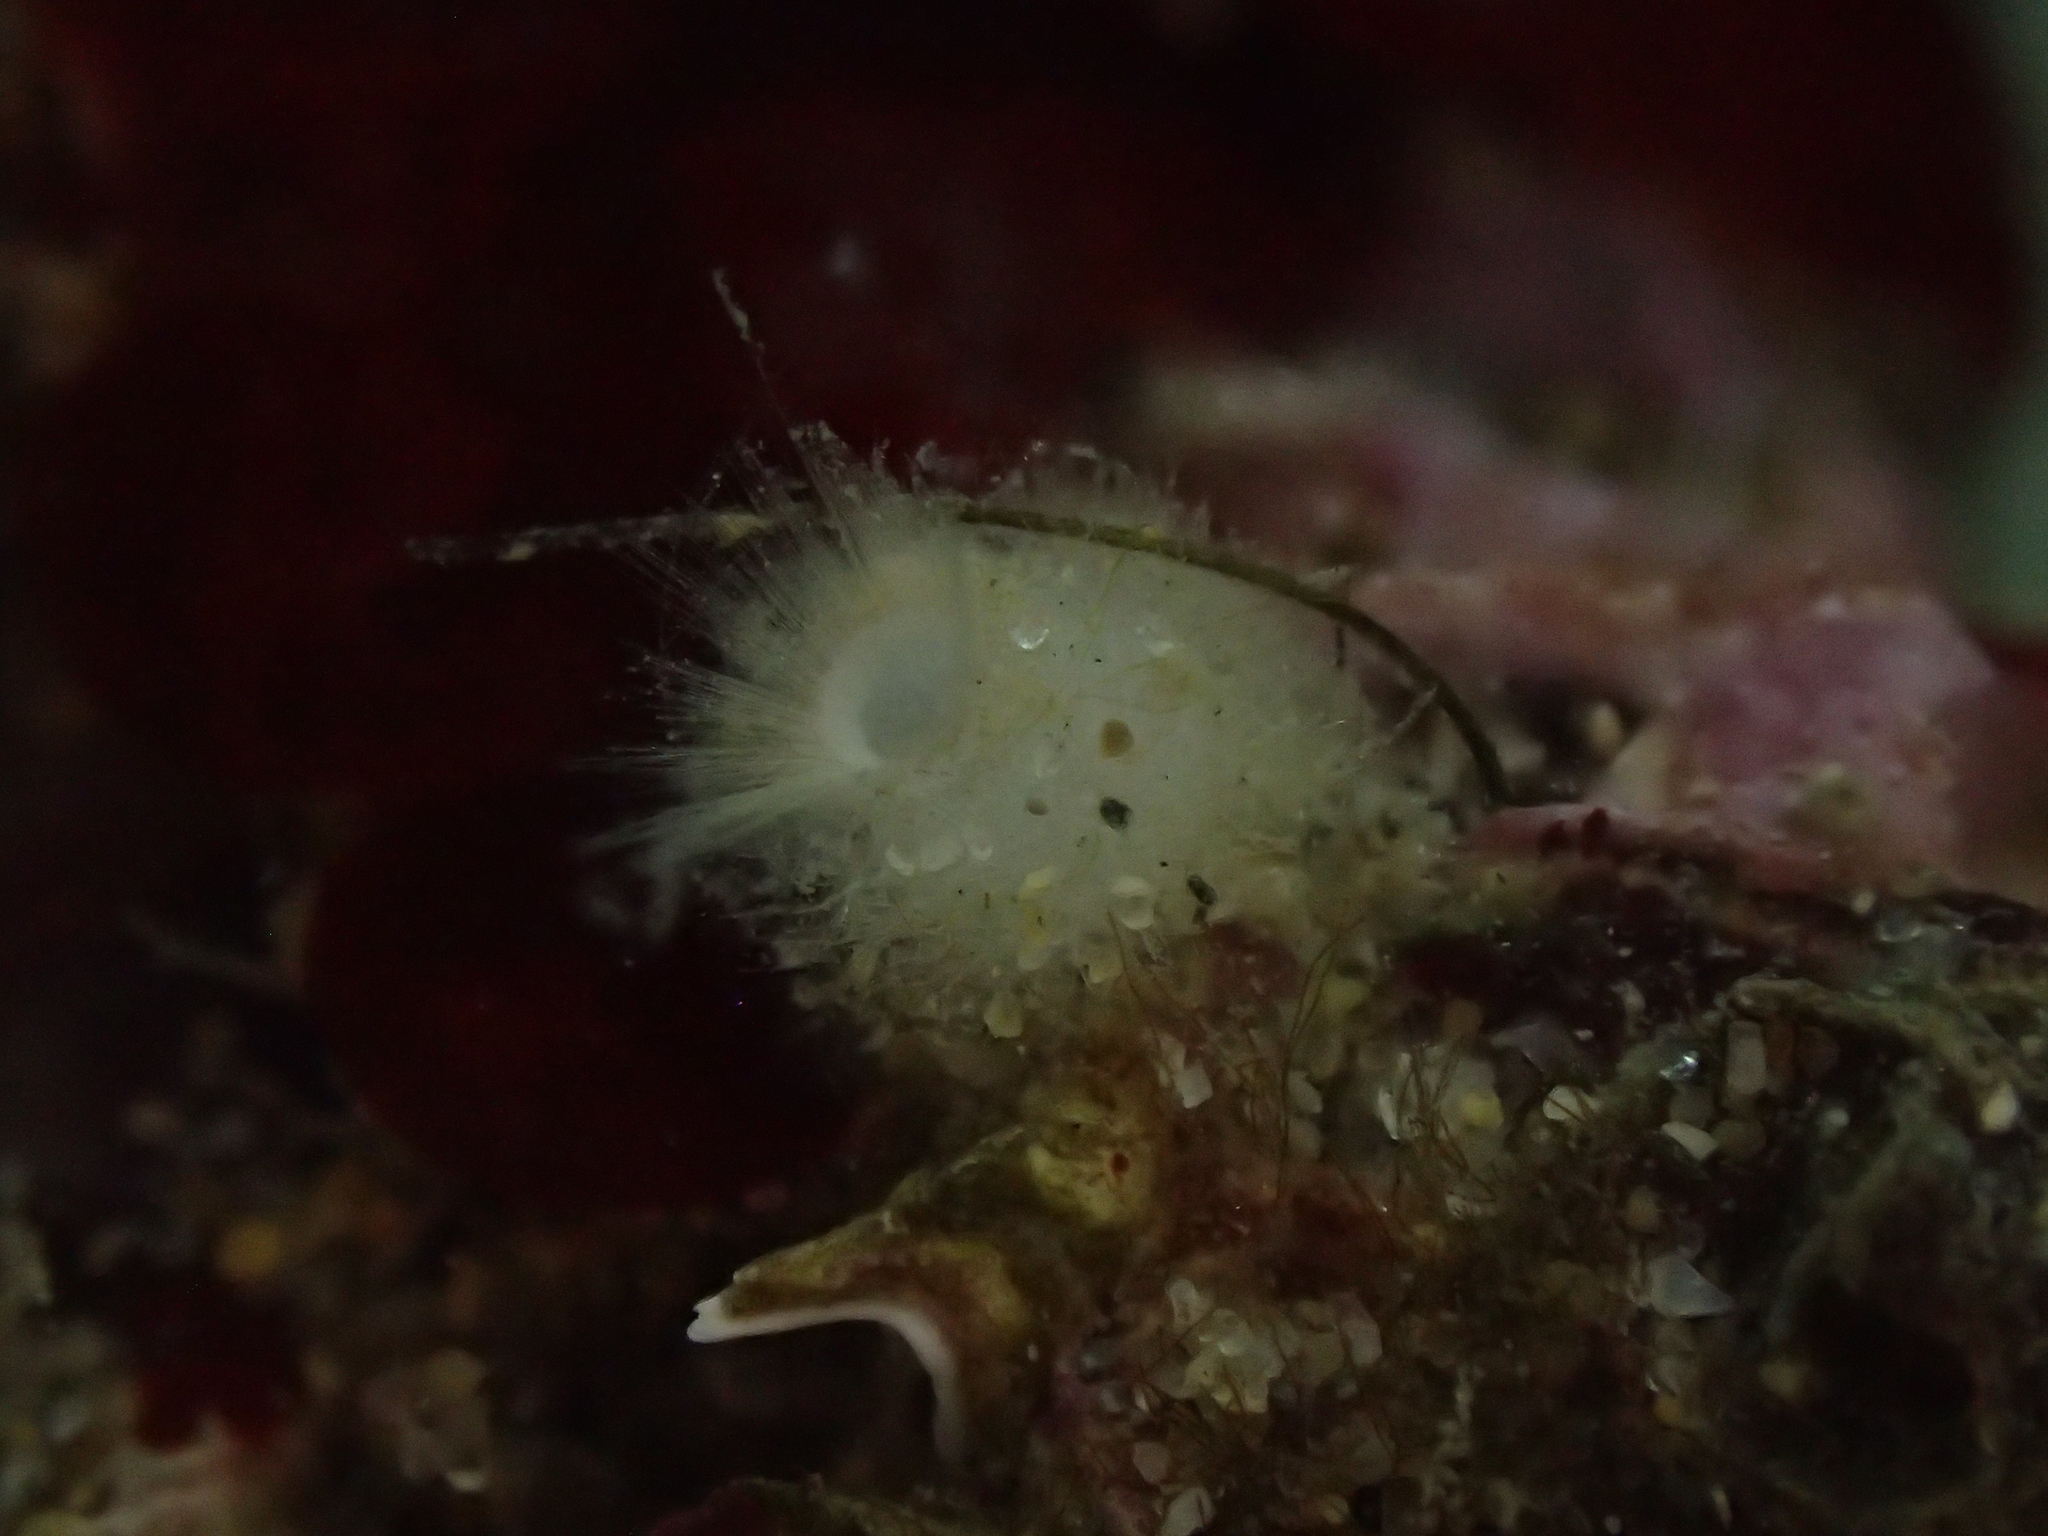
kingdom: Animalia
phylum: Porifera
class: Calcarea
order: Leucosolenida
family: Syconidae
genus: Sycon
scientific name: Sycon raphanus
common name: Bristly vase sponge
